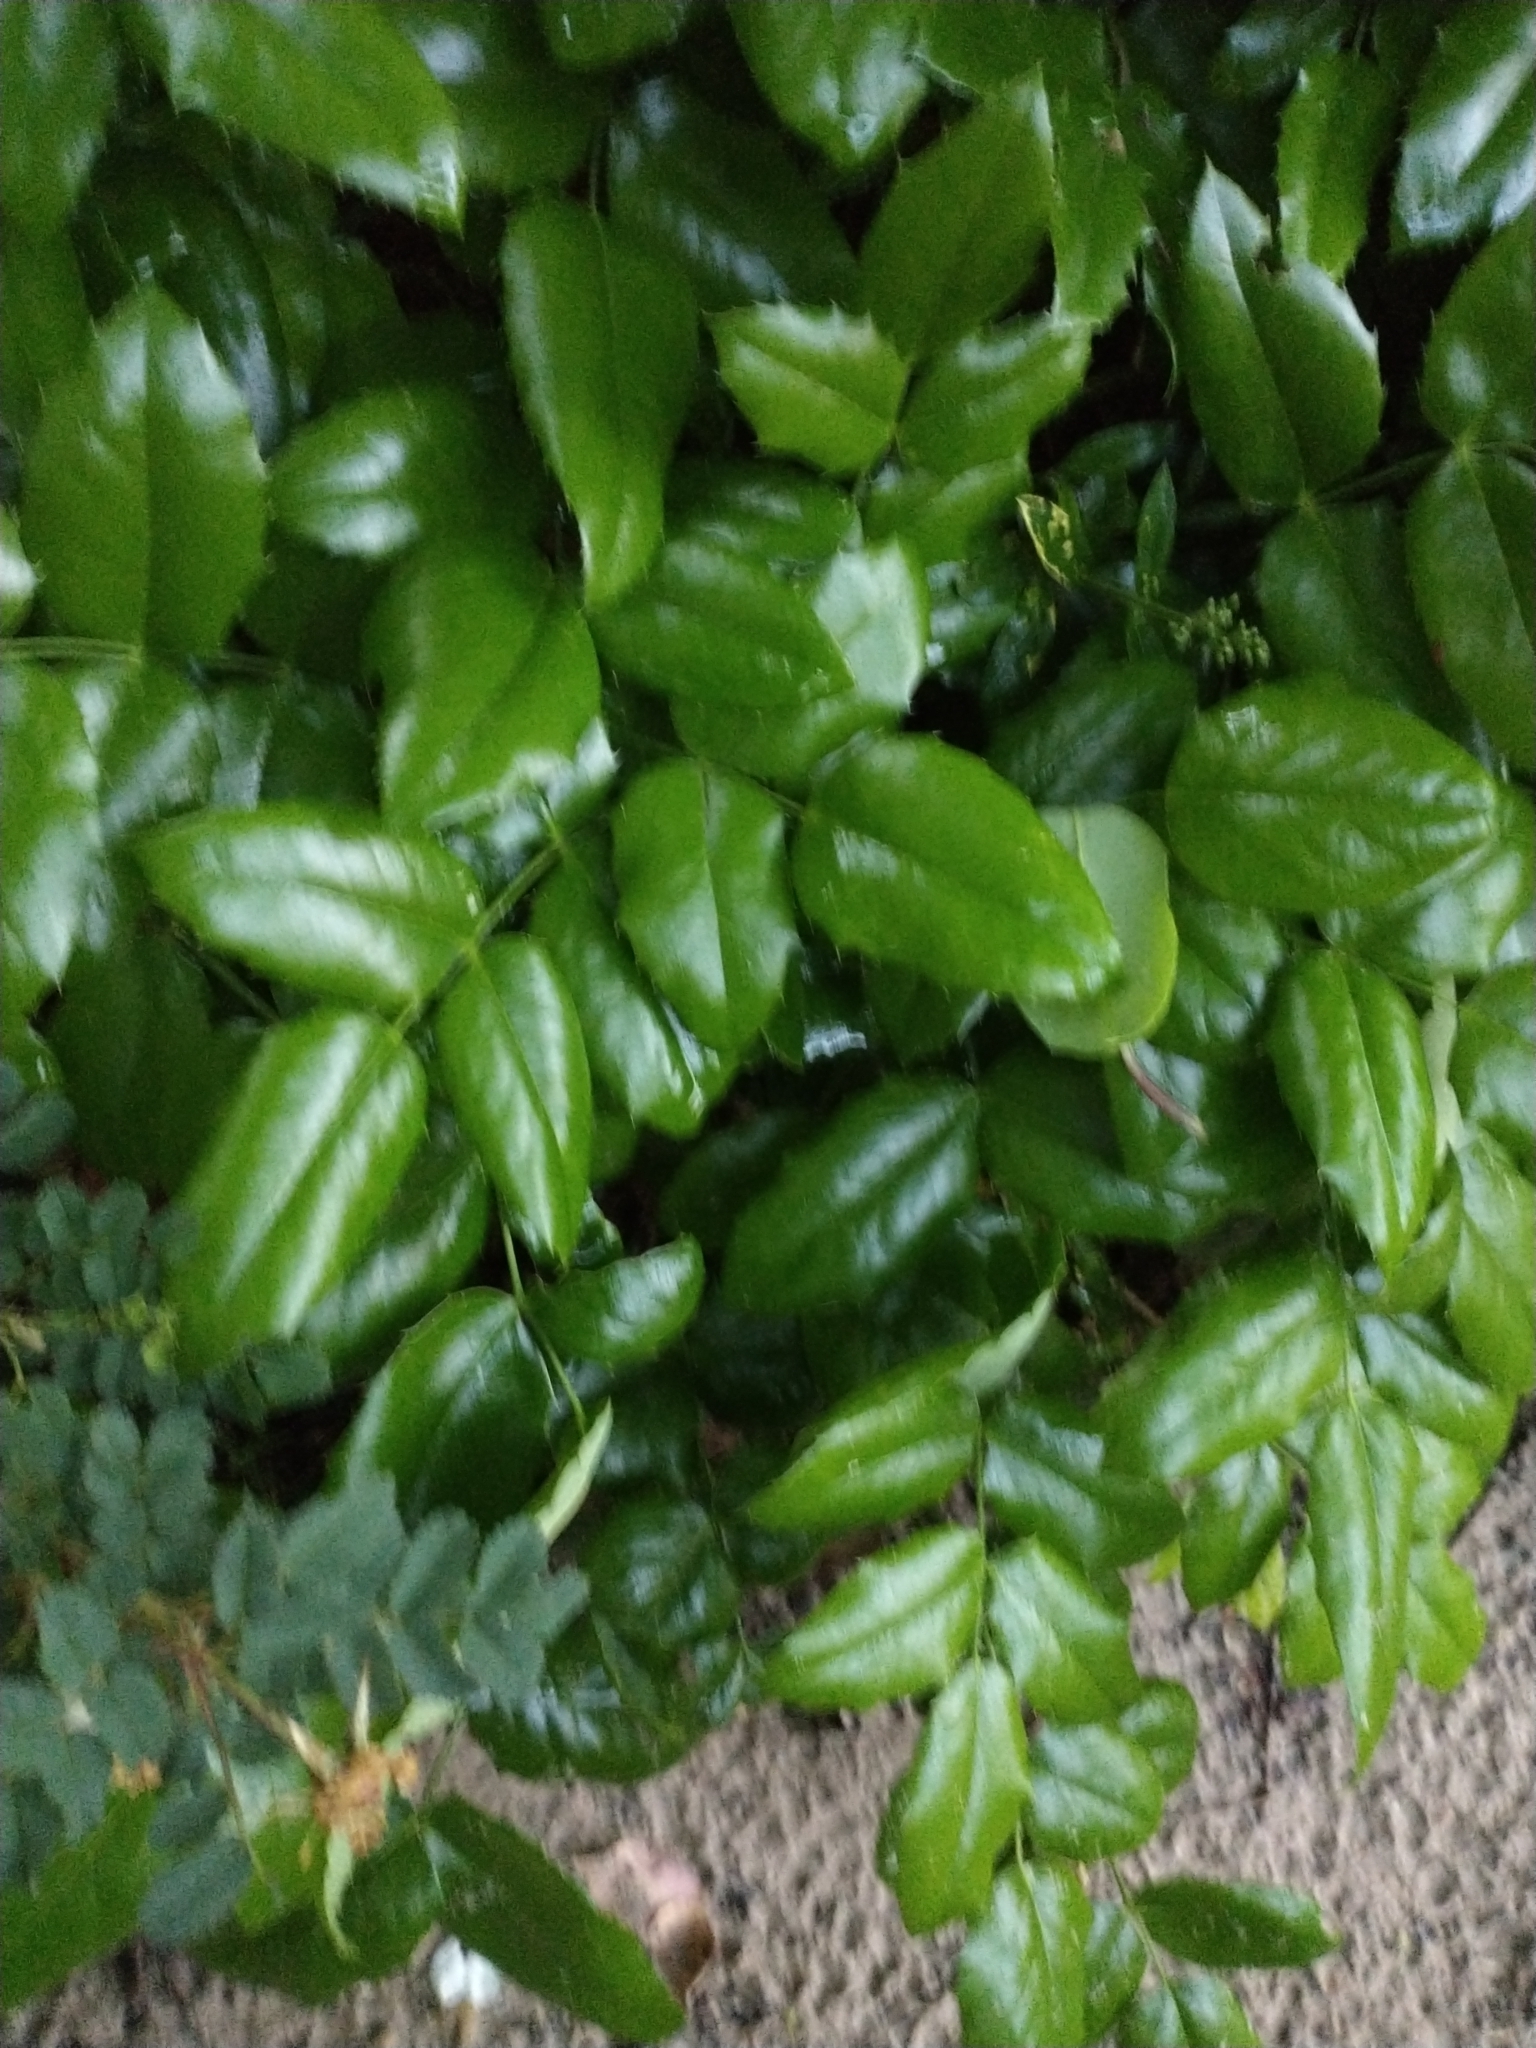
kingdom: Plantae
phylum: Tracheophyta
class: Magnoliopsida
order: Ranunculales
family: Berberidaceae
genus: Mahonia
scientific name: Mahonia aquifolium
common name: Oregon-grape
